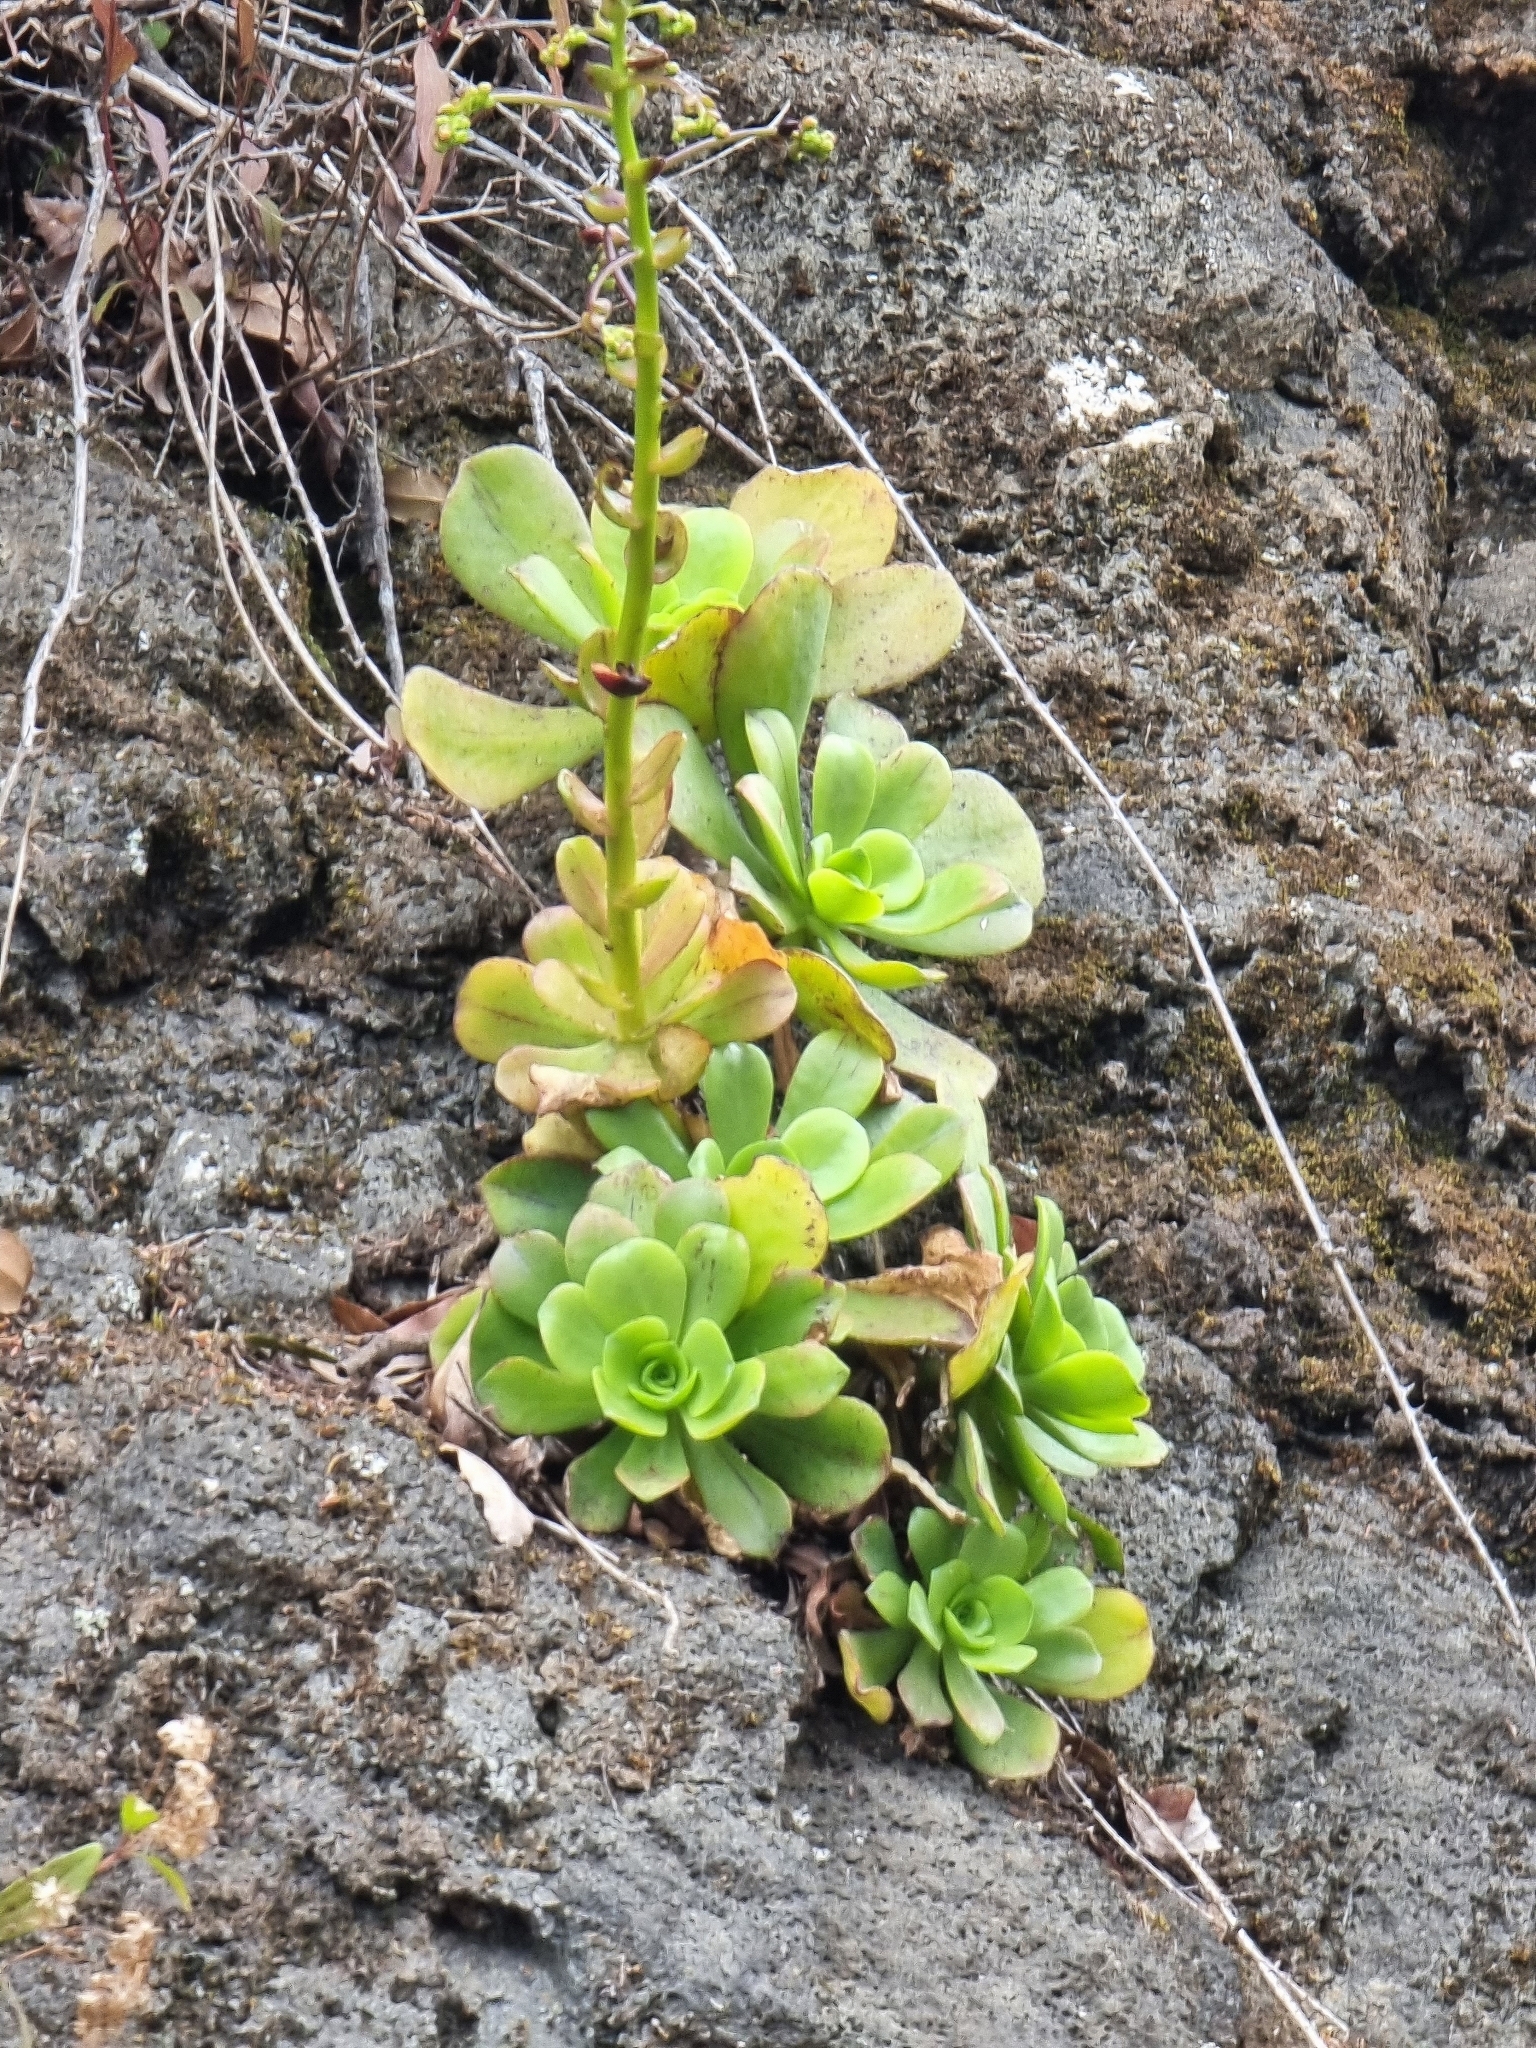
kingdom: Plantae
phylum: Tracheophyta
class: Magnoliopsida
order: Saxifragales
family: Crassulaceae
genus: Aeonium
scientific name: Aeonium glutinosum
